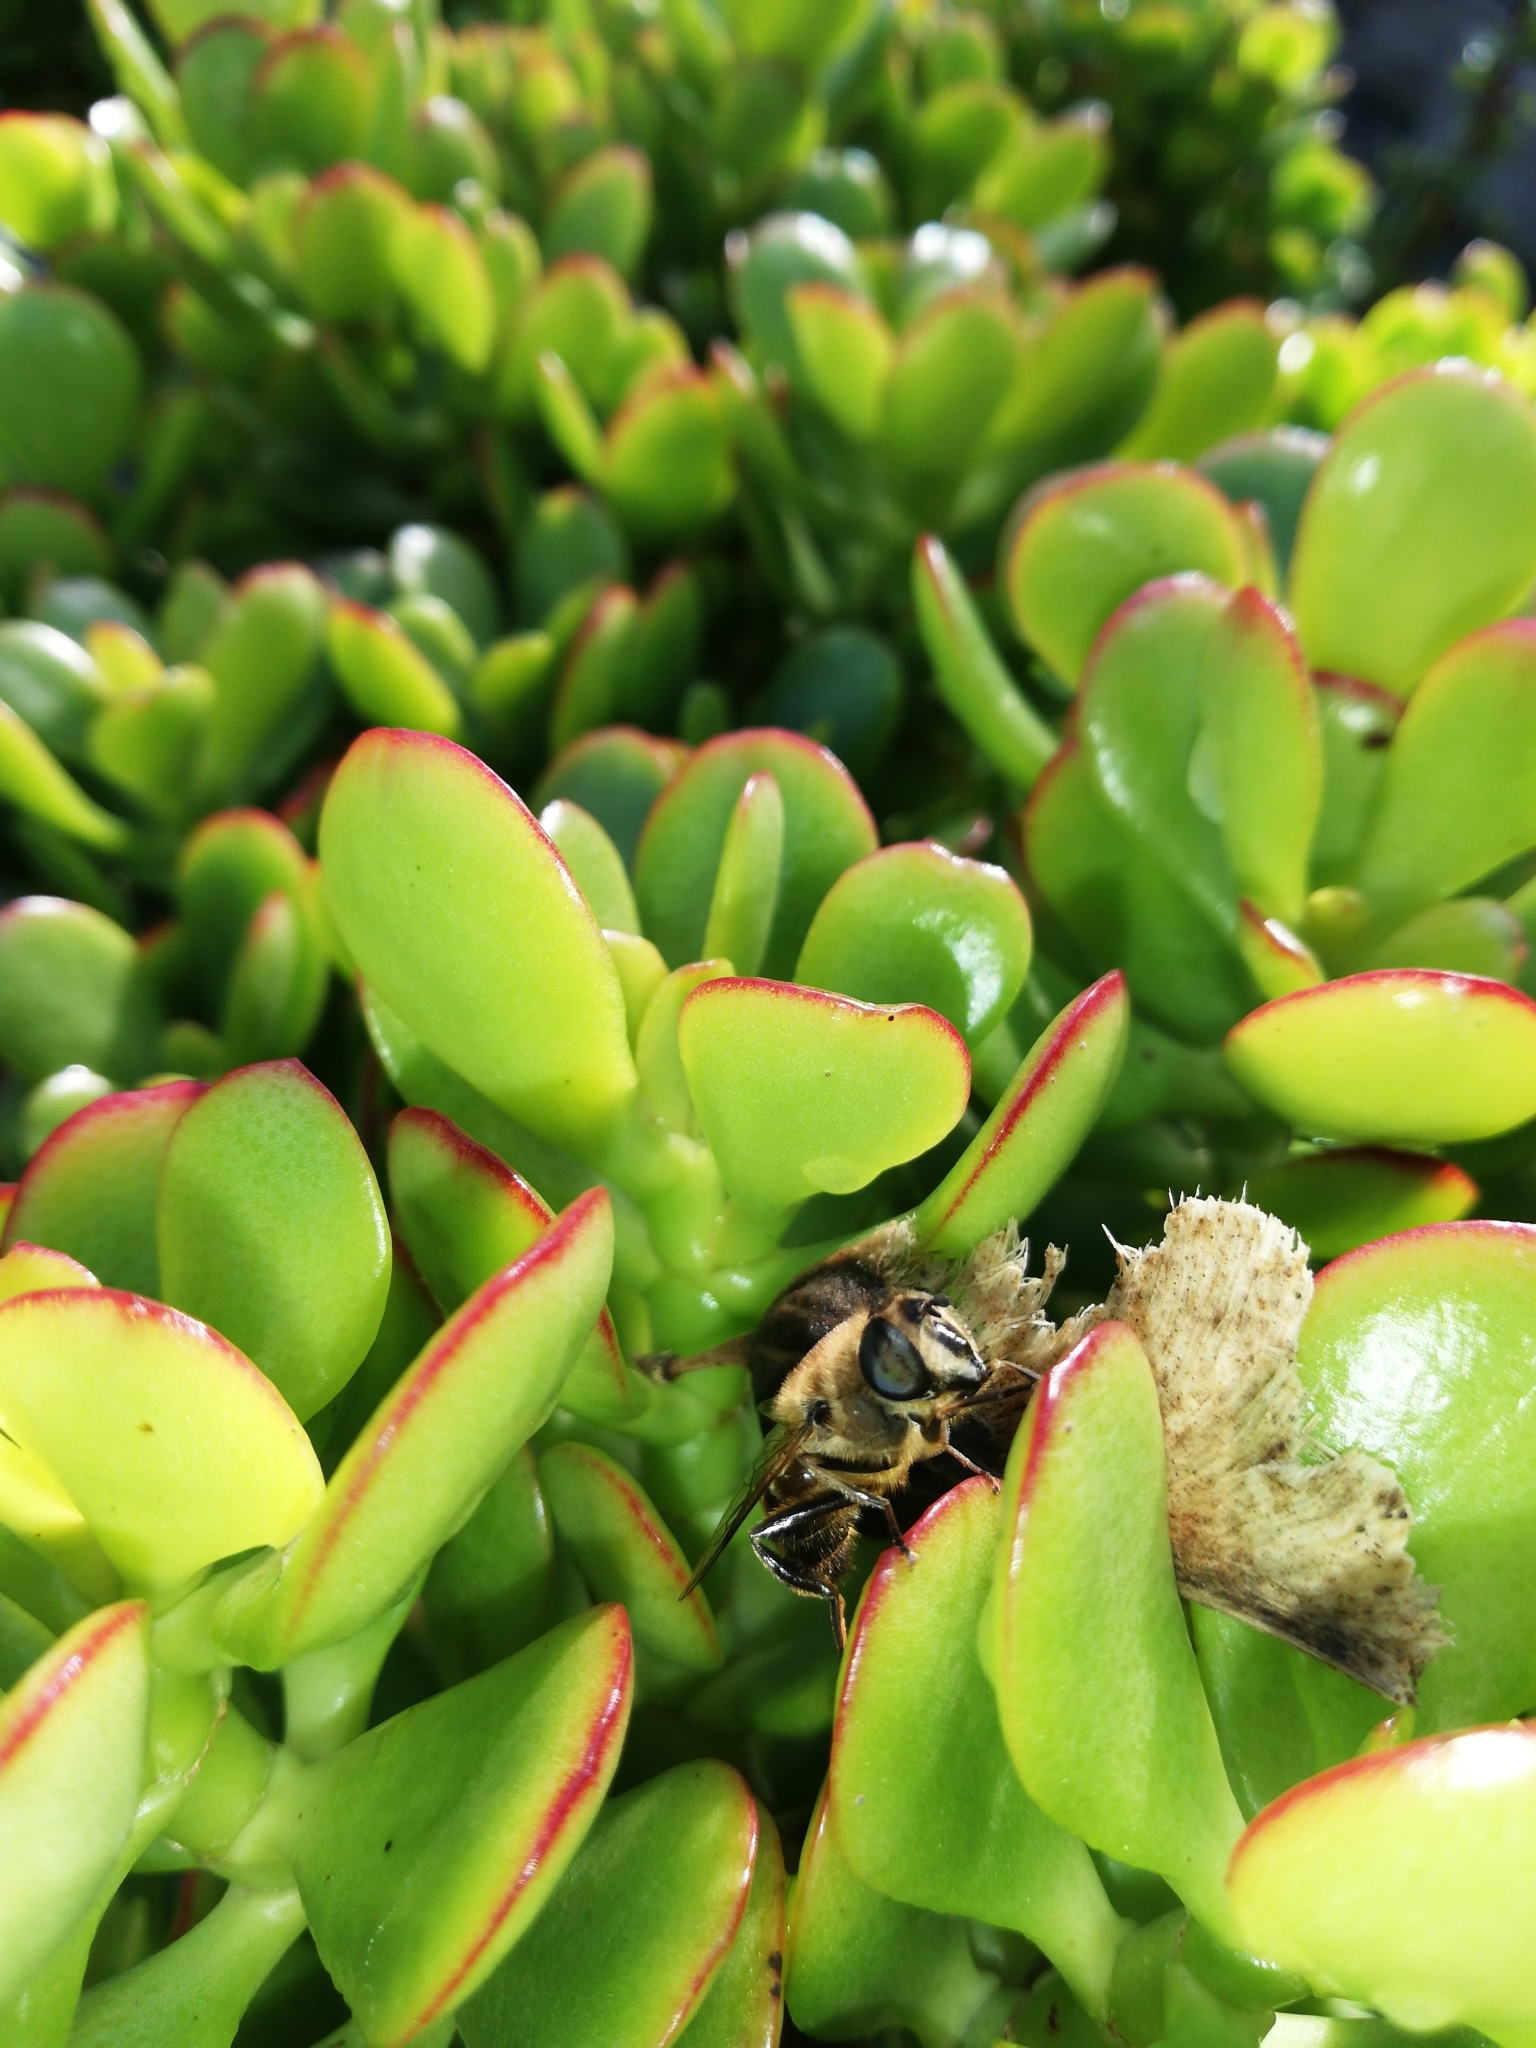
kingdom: Animalia
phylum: Arthropoda
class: Insecta
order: Diptera
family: Syrphidae
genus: Eristalis
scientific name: Eristalis tenax
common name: Drone fly
